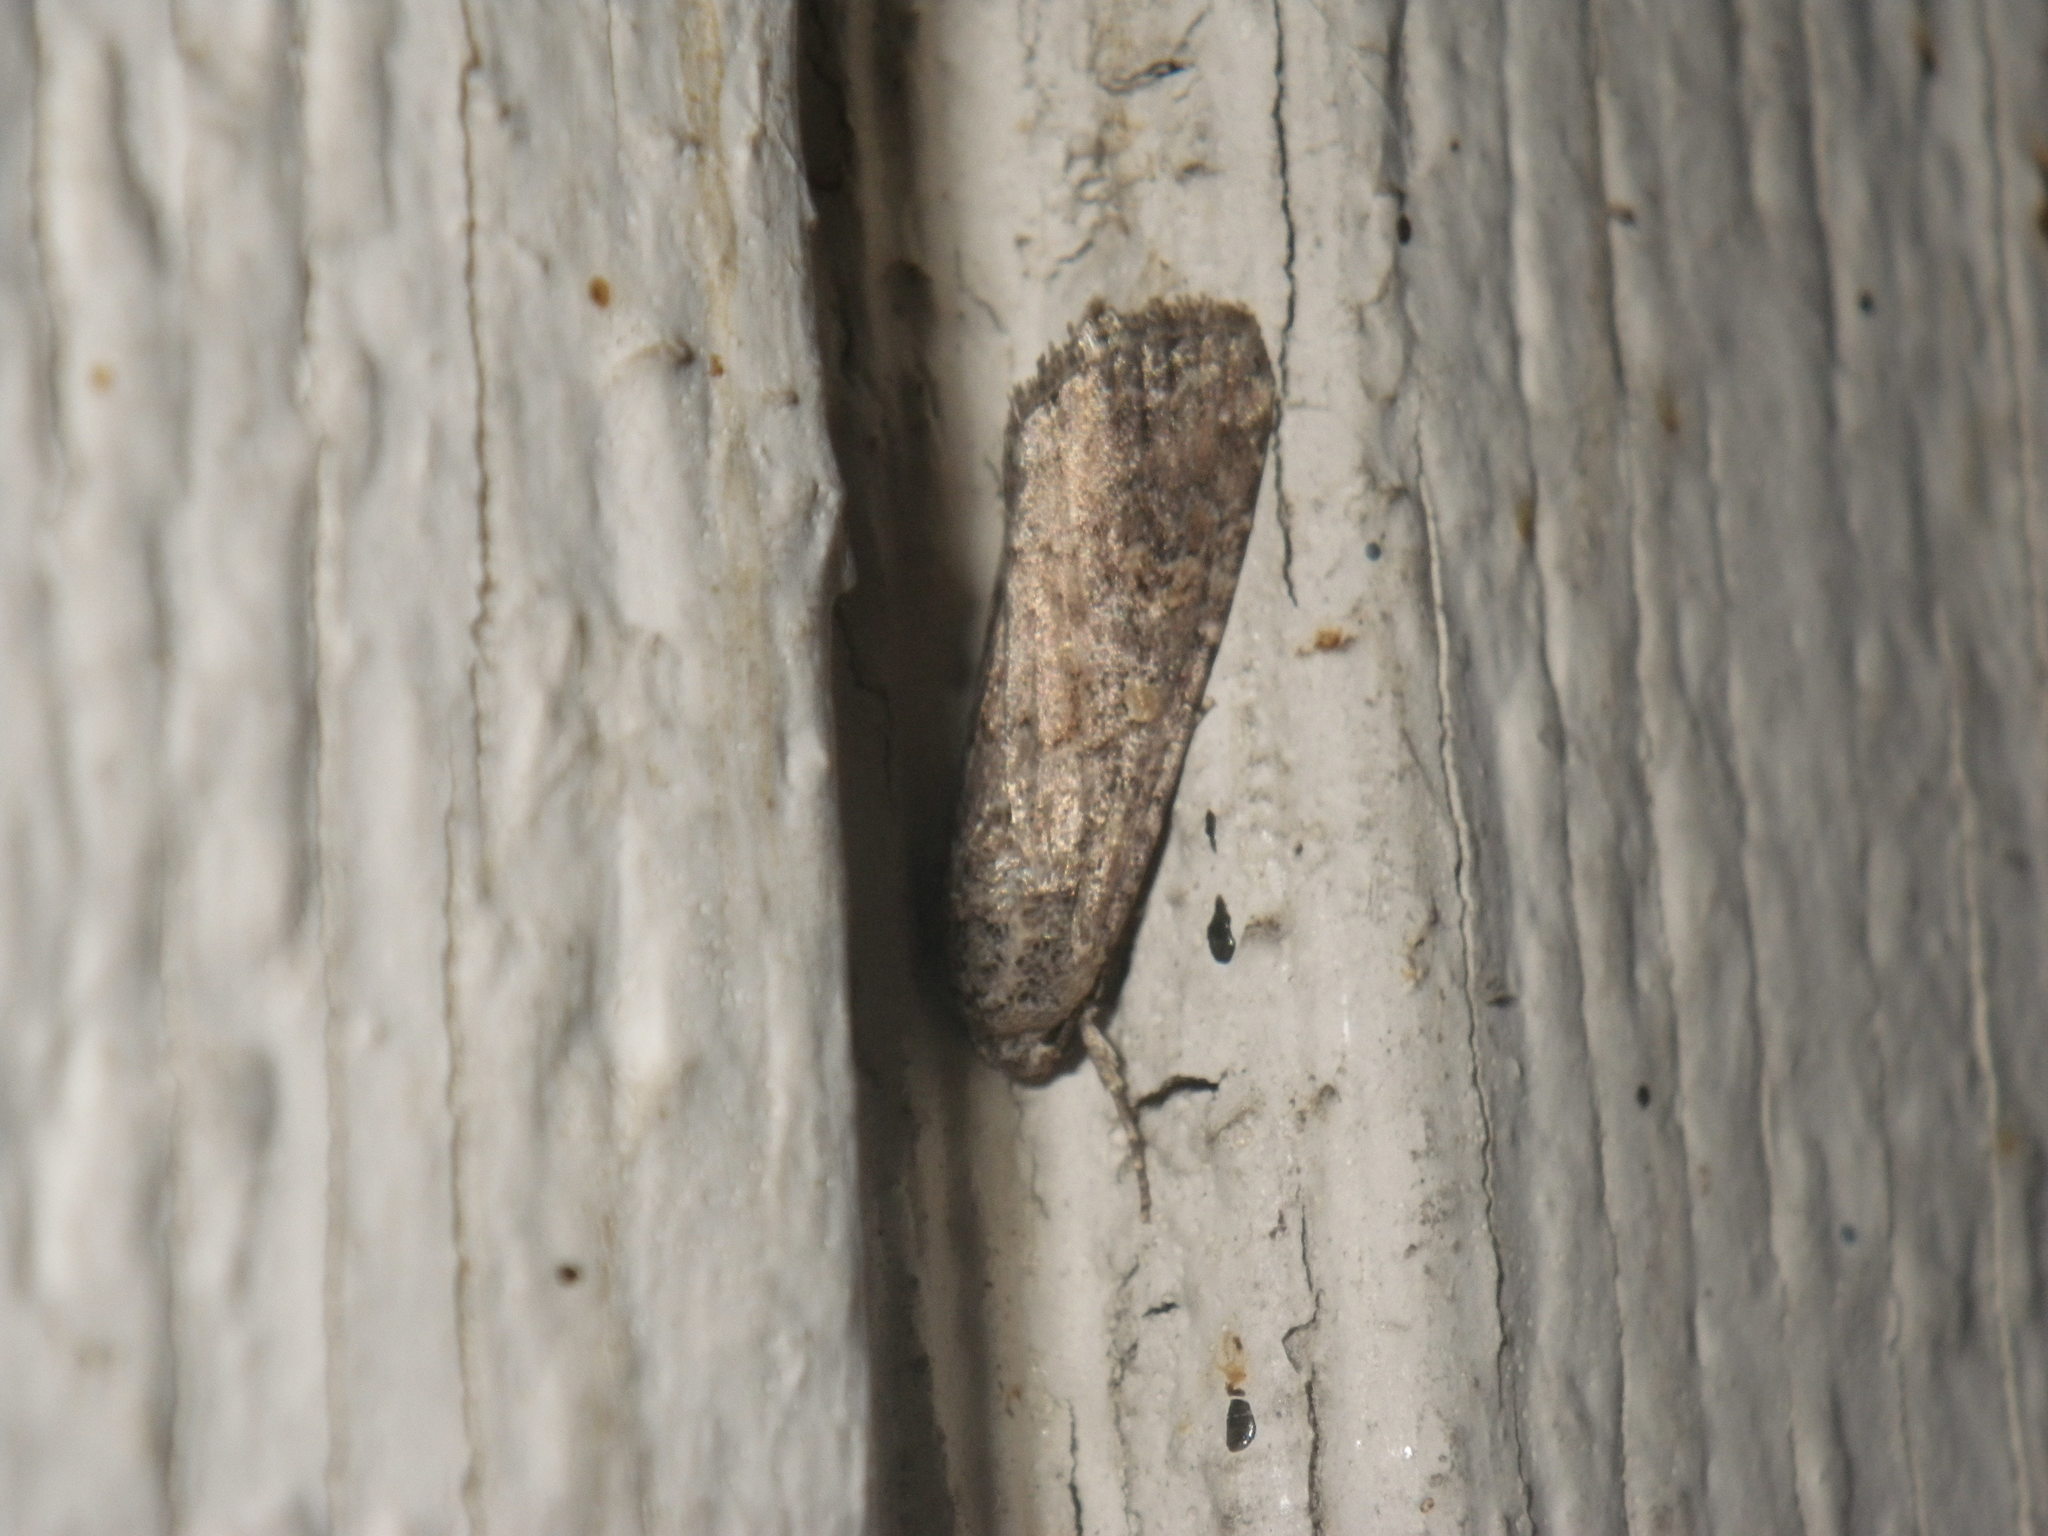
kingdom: Animalia
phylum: Arthropoda
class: Insecta
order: Lepidoptera
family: Noctuidae
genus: Spodoptera
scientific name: Spodoptera exigua
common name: Beet armyworm
